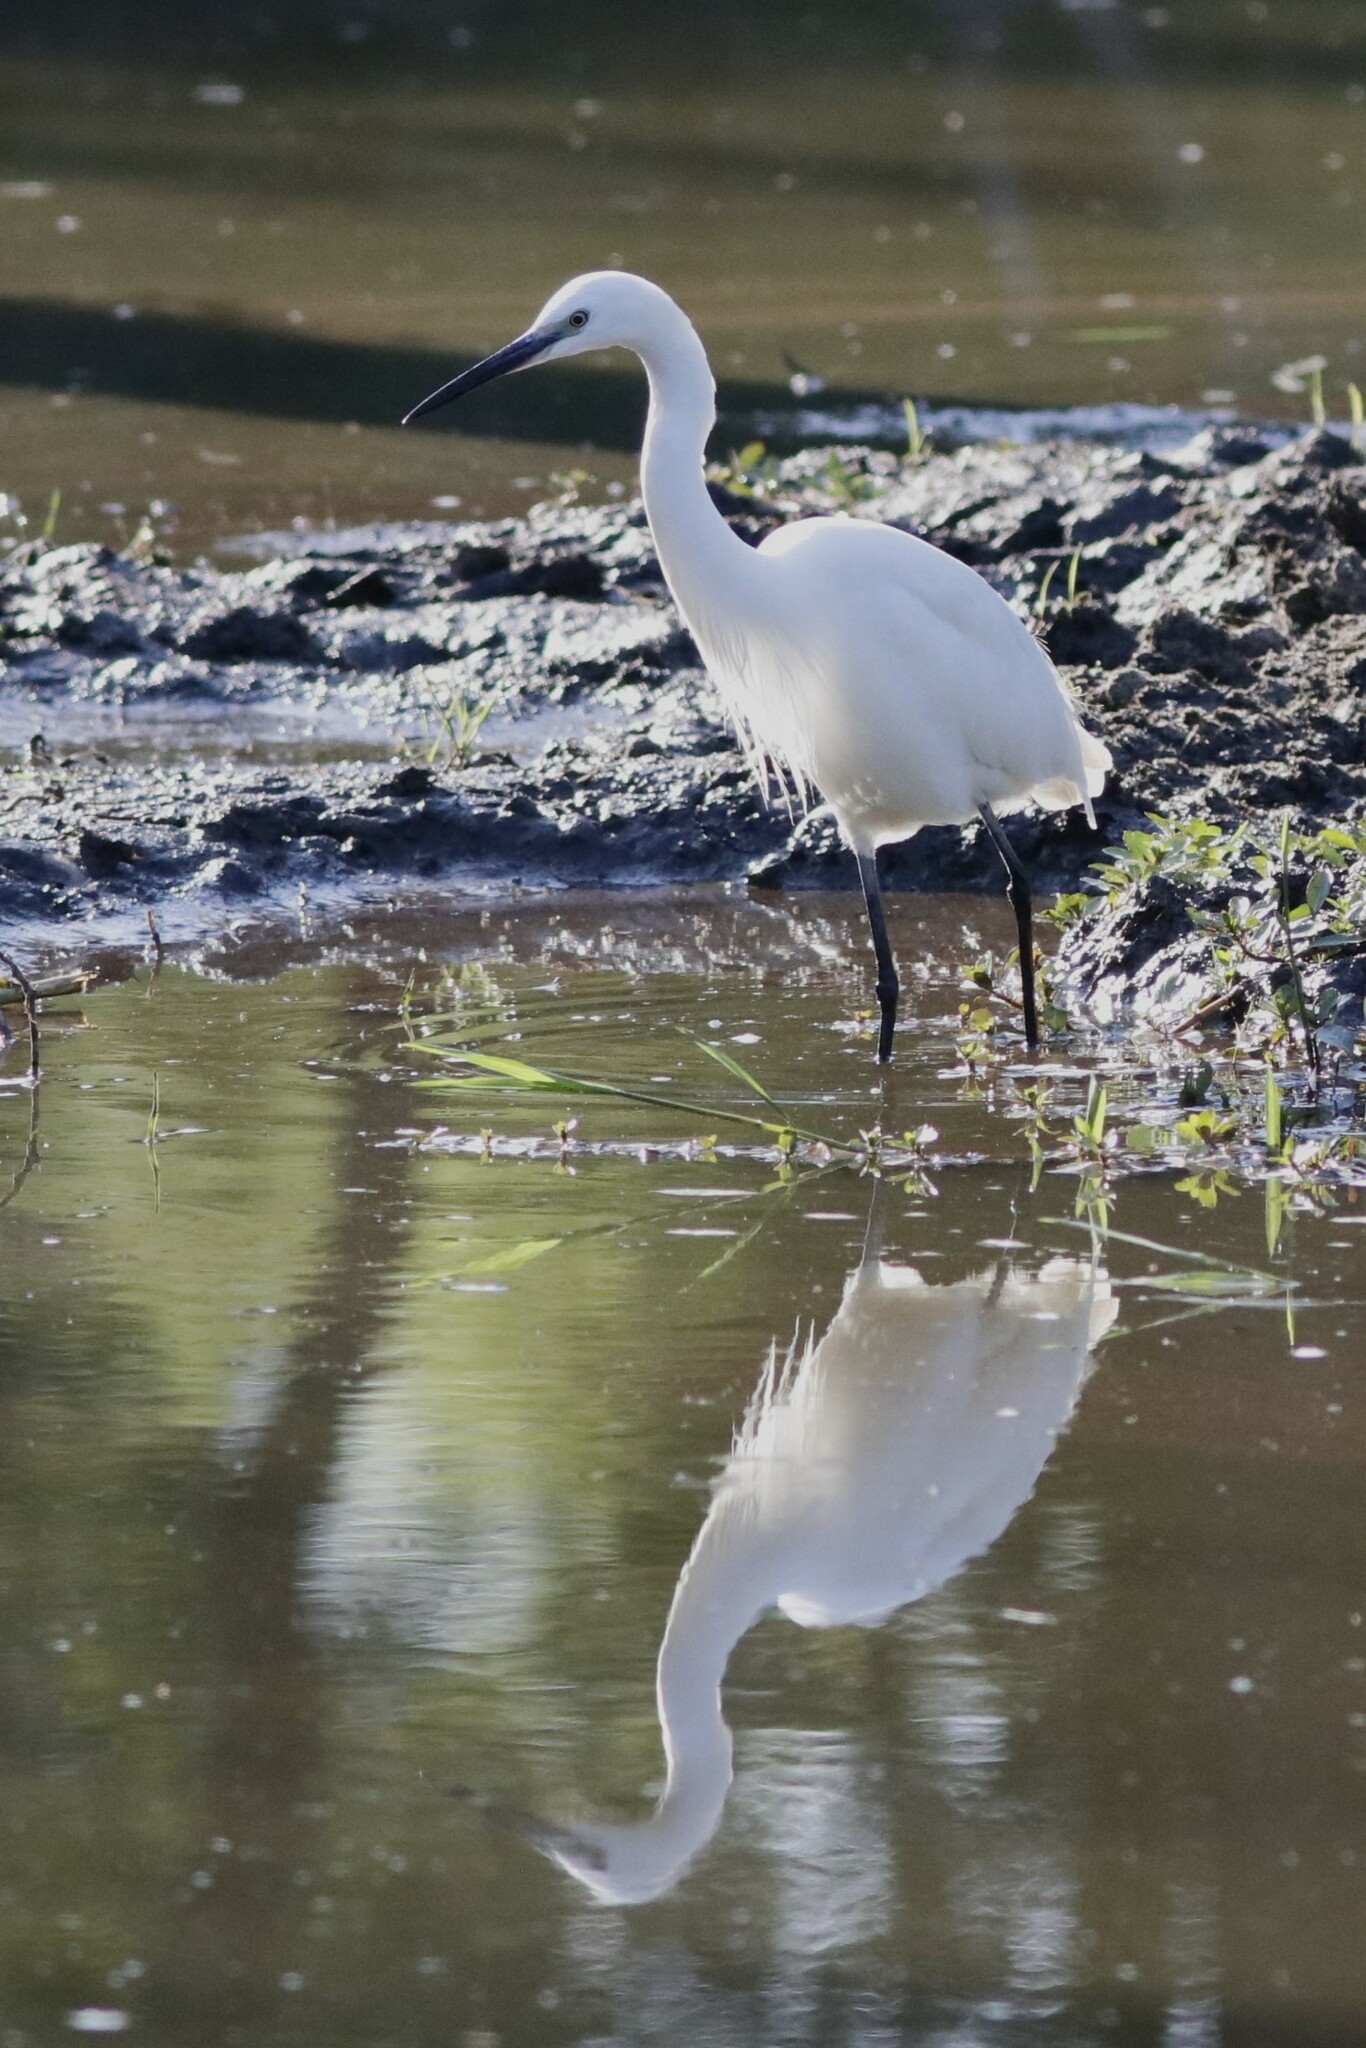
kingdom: Animalia
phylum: Chordata
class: Aves
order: Pelecaniformes
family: Ardeidae
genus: Egretta
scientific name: Egretta garzetta
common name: Little egret
